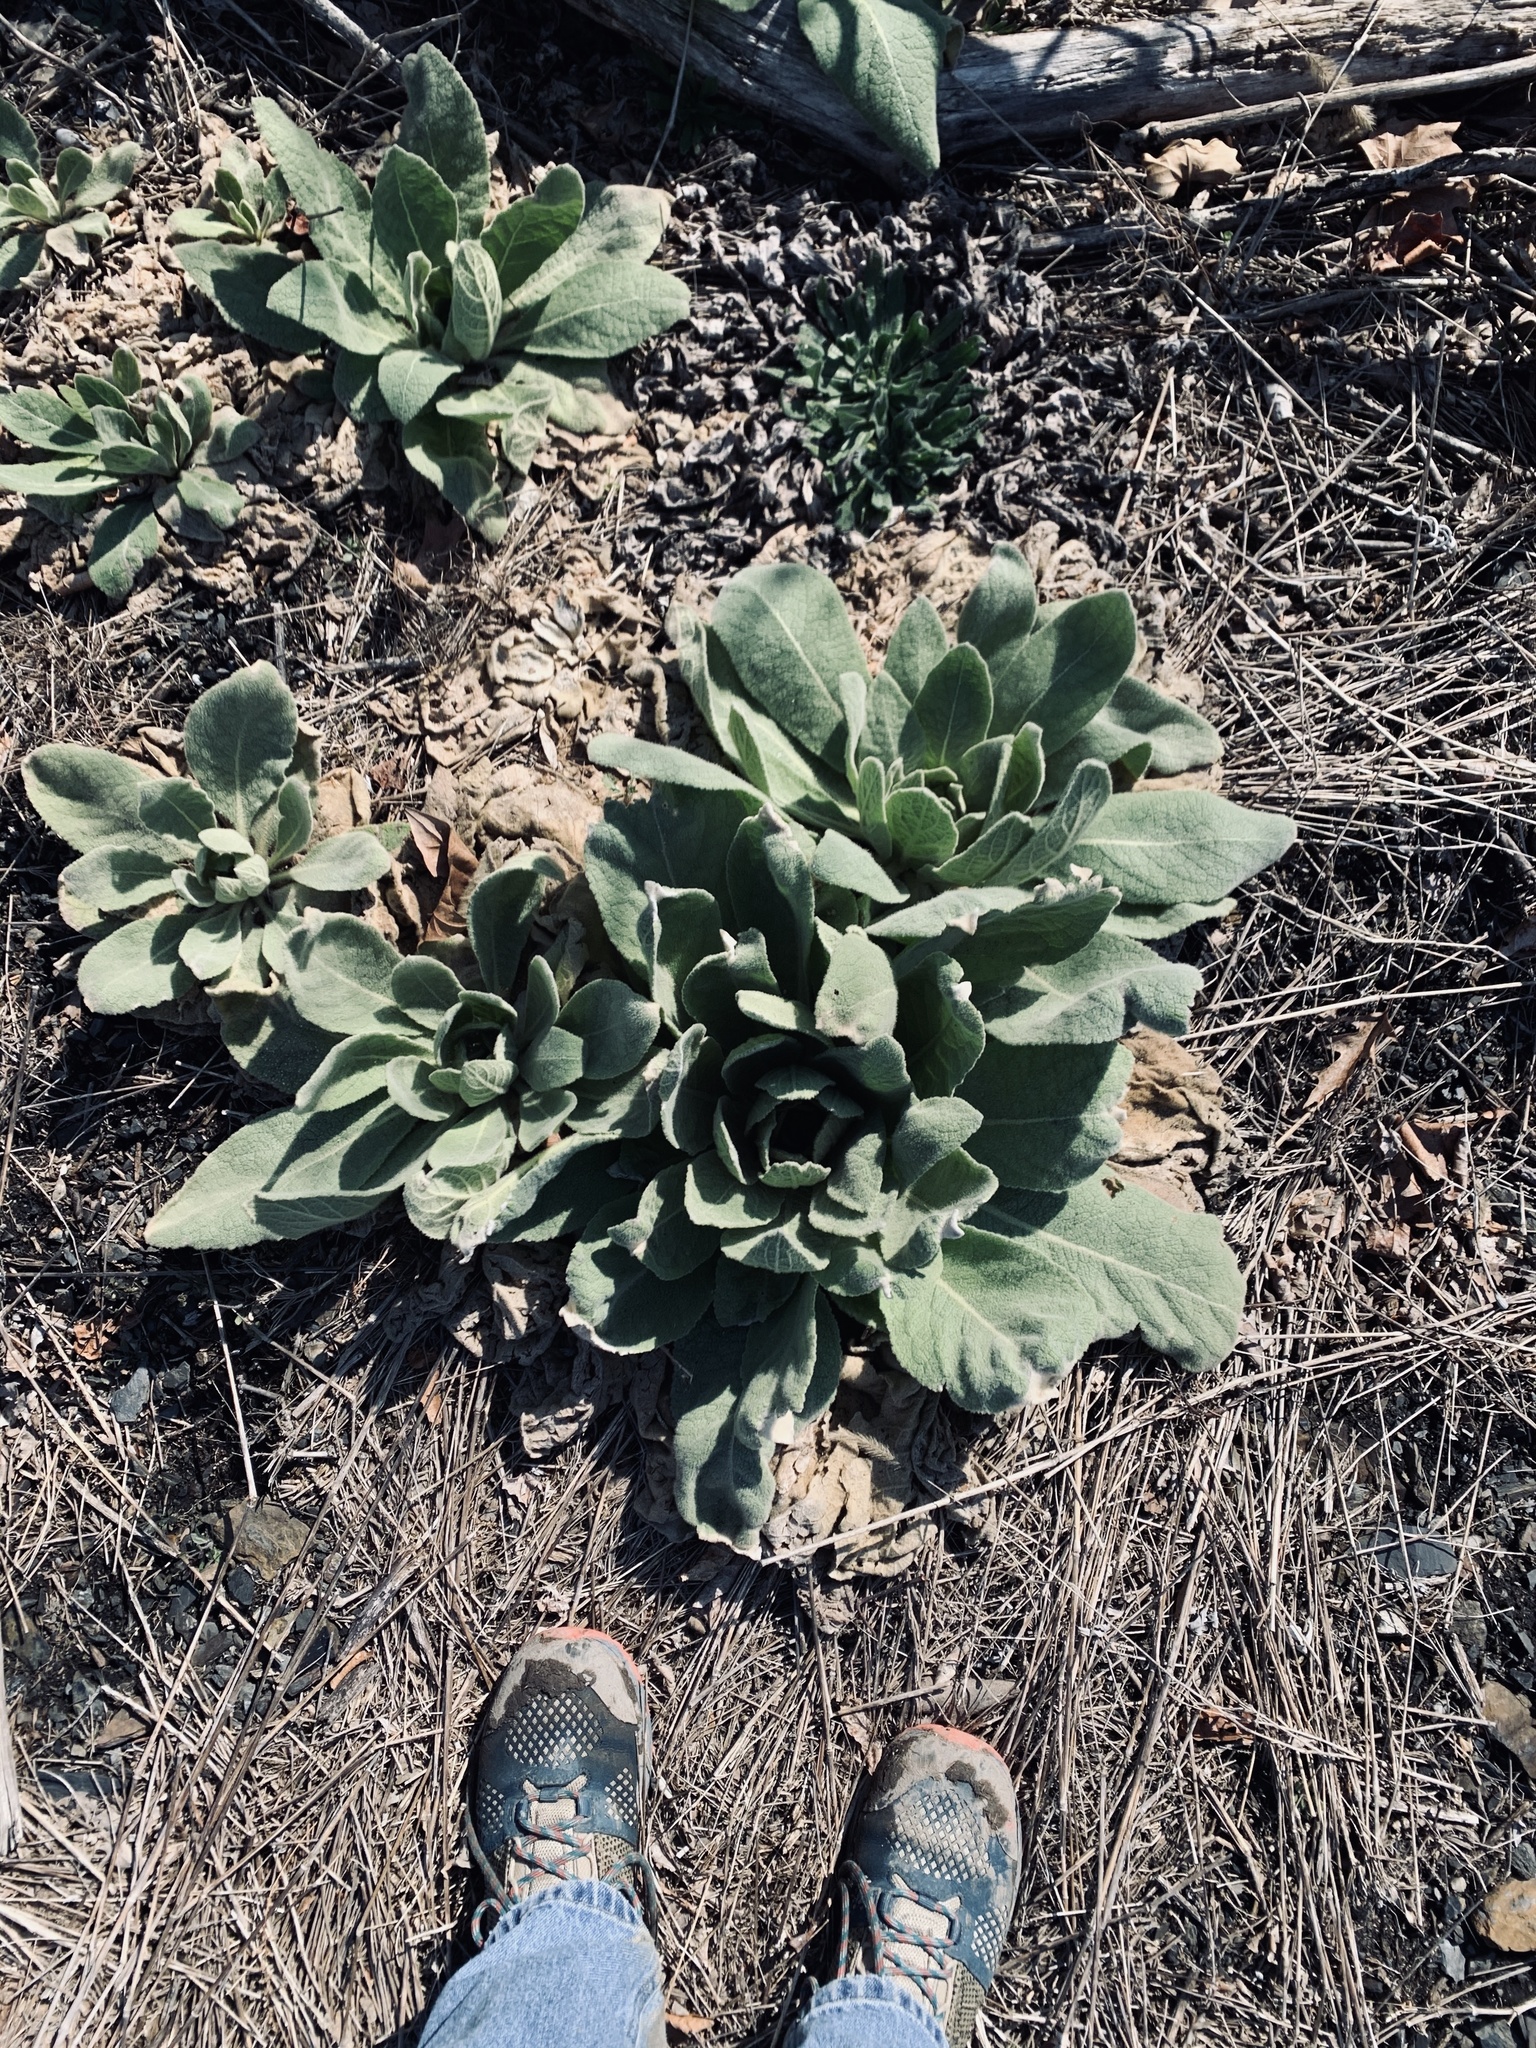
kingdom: Plantae
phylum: Tracheophyta
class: Magnoliopsida
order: Lamiales
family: Scrophulariaceae
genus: Verbascum
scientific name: Verbascum thapsus
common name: Common mullein
